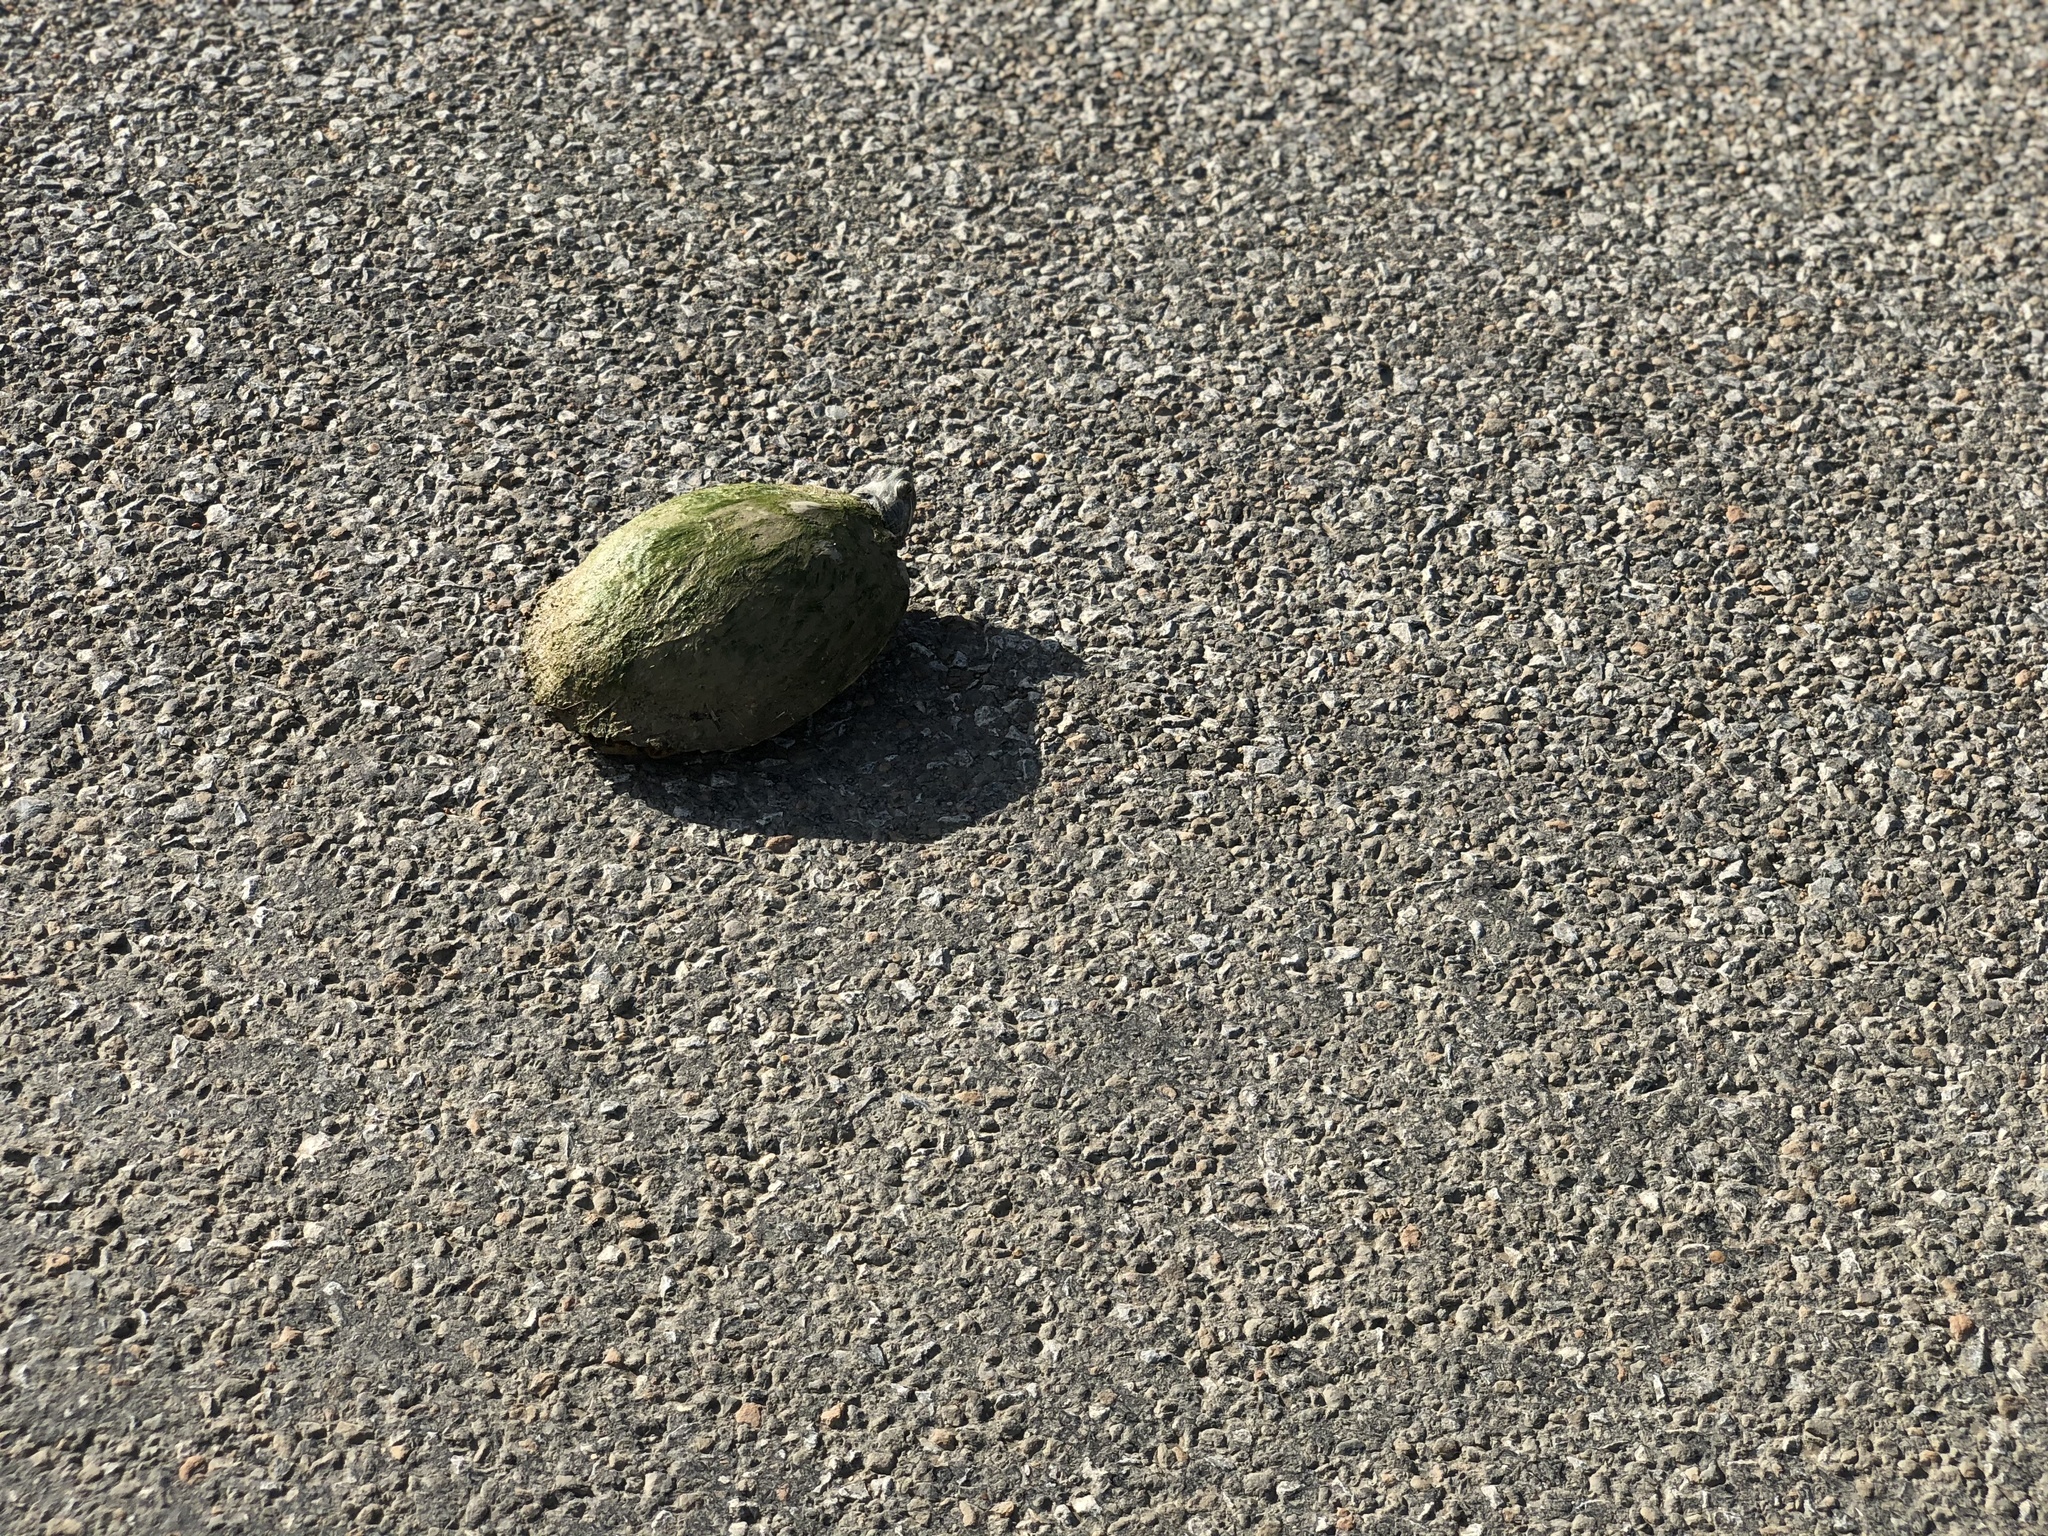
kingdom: Animalia
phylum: Chordata
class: Testudines
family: Emydidae
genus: Pseudemys
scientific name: Pseudemys concinna
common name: Eastern river cooter
